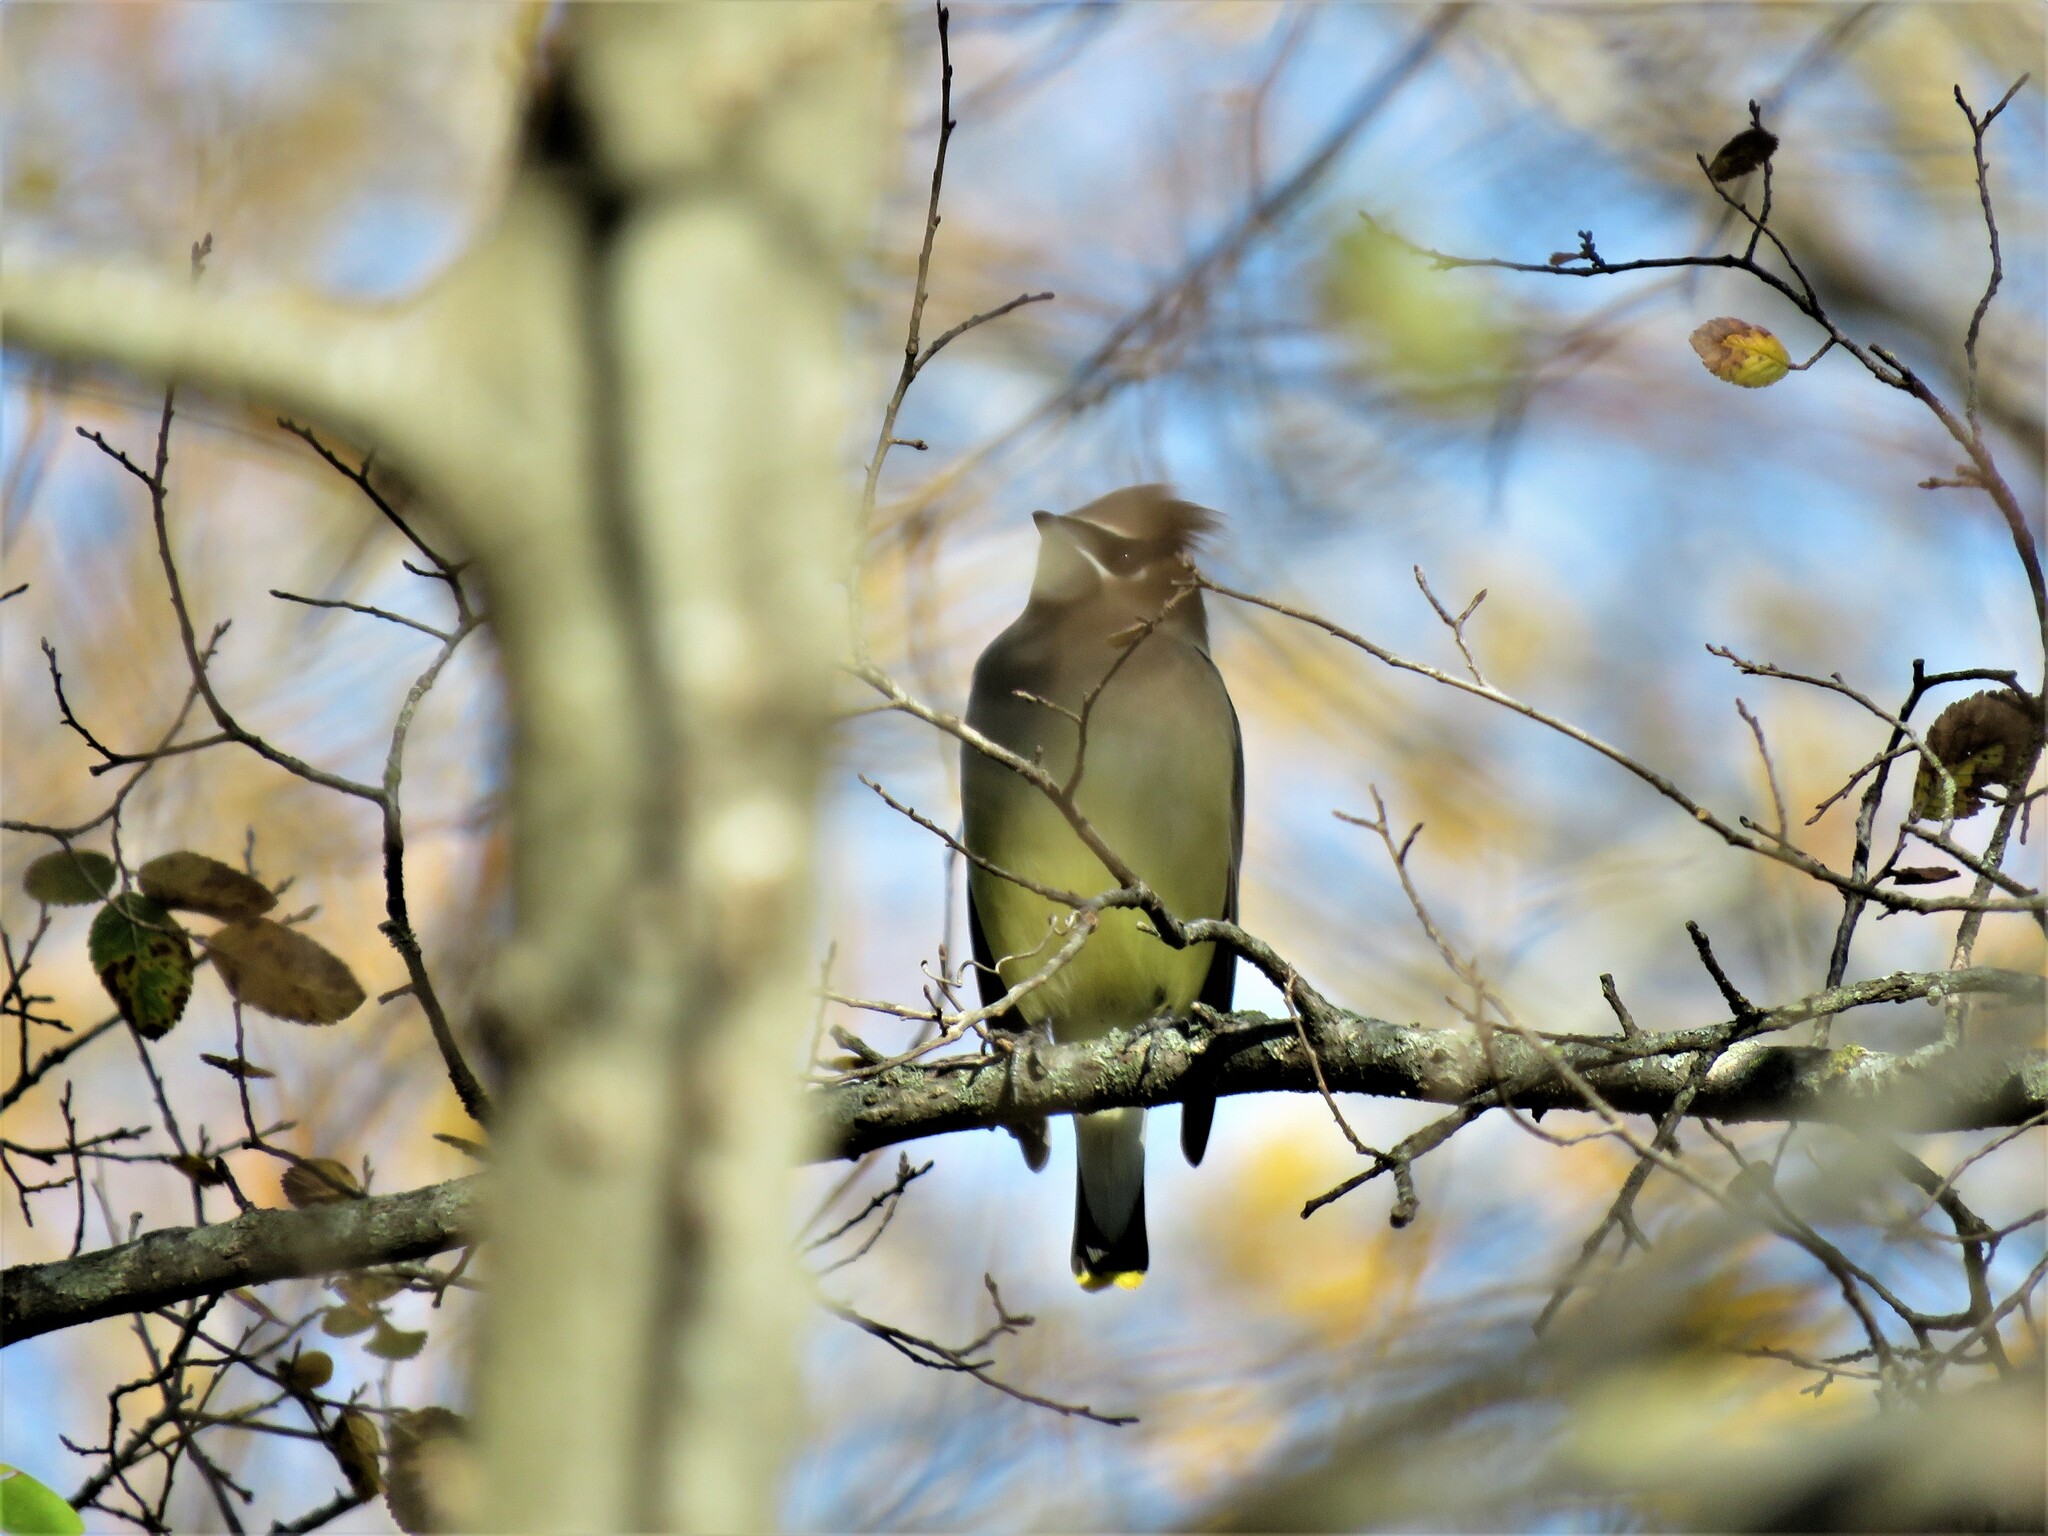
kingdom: Animalia
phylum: Chordata
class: Aves
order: Passeriformes
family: Bombycillidae
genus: Bombycilla
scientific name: Bombycilla cedrorum
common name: Cedar waxwing
